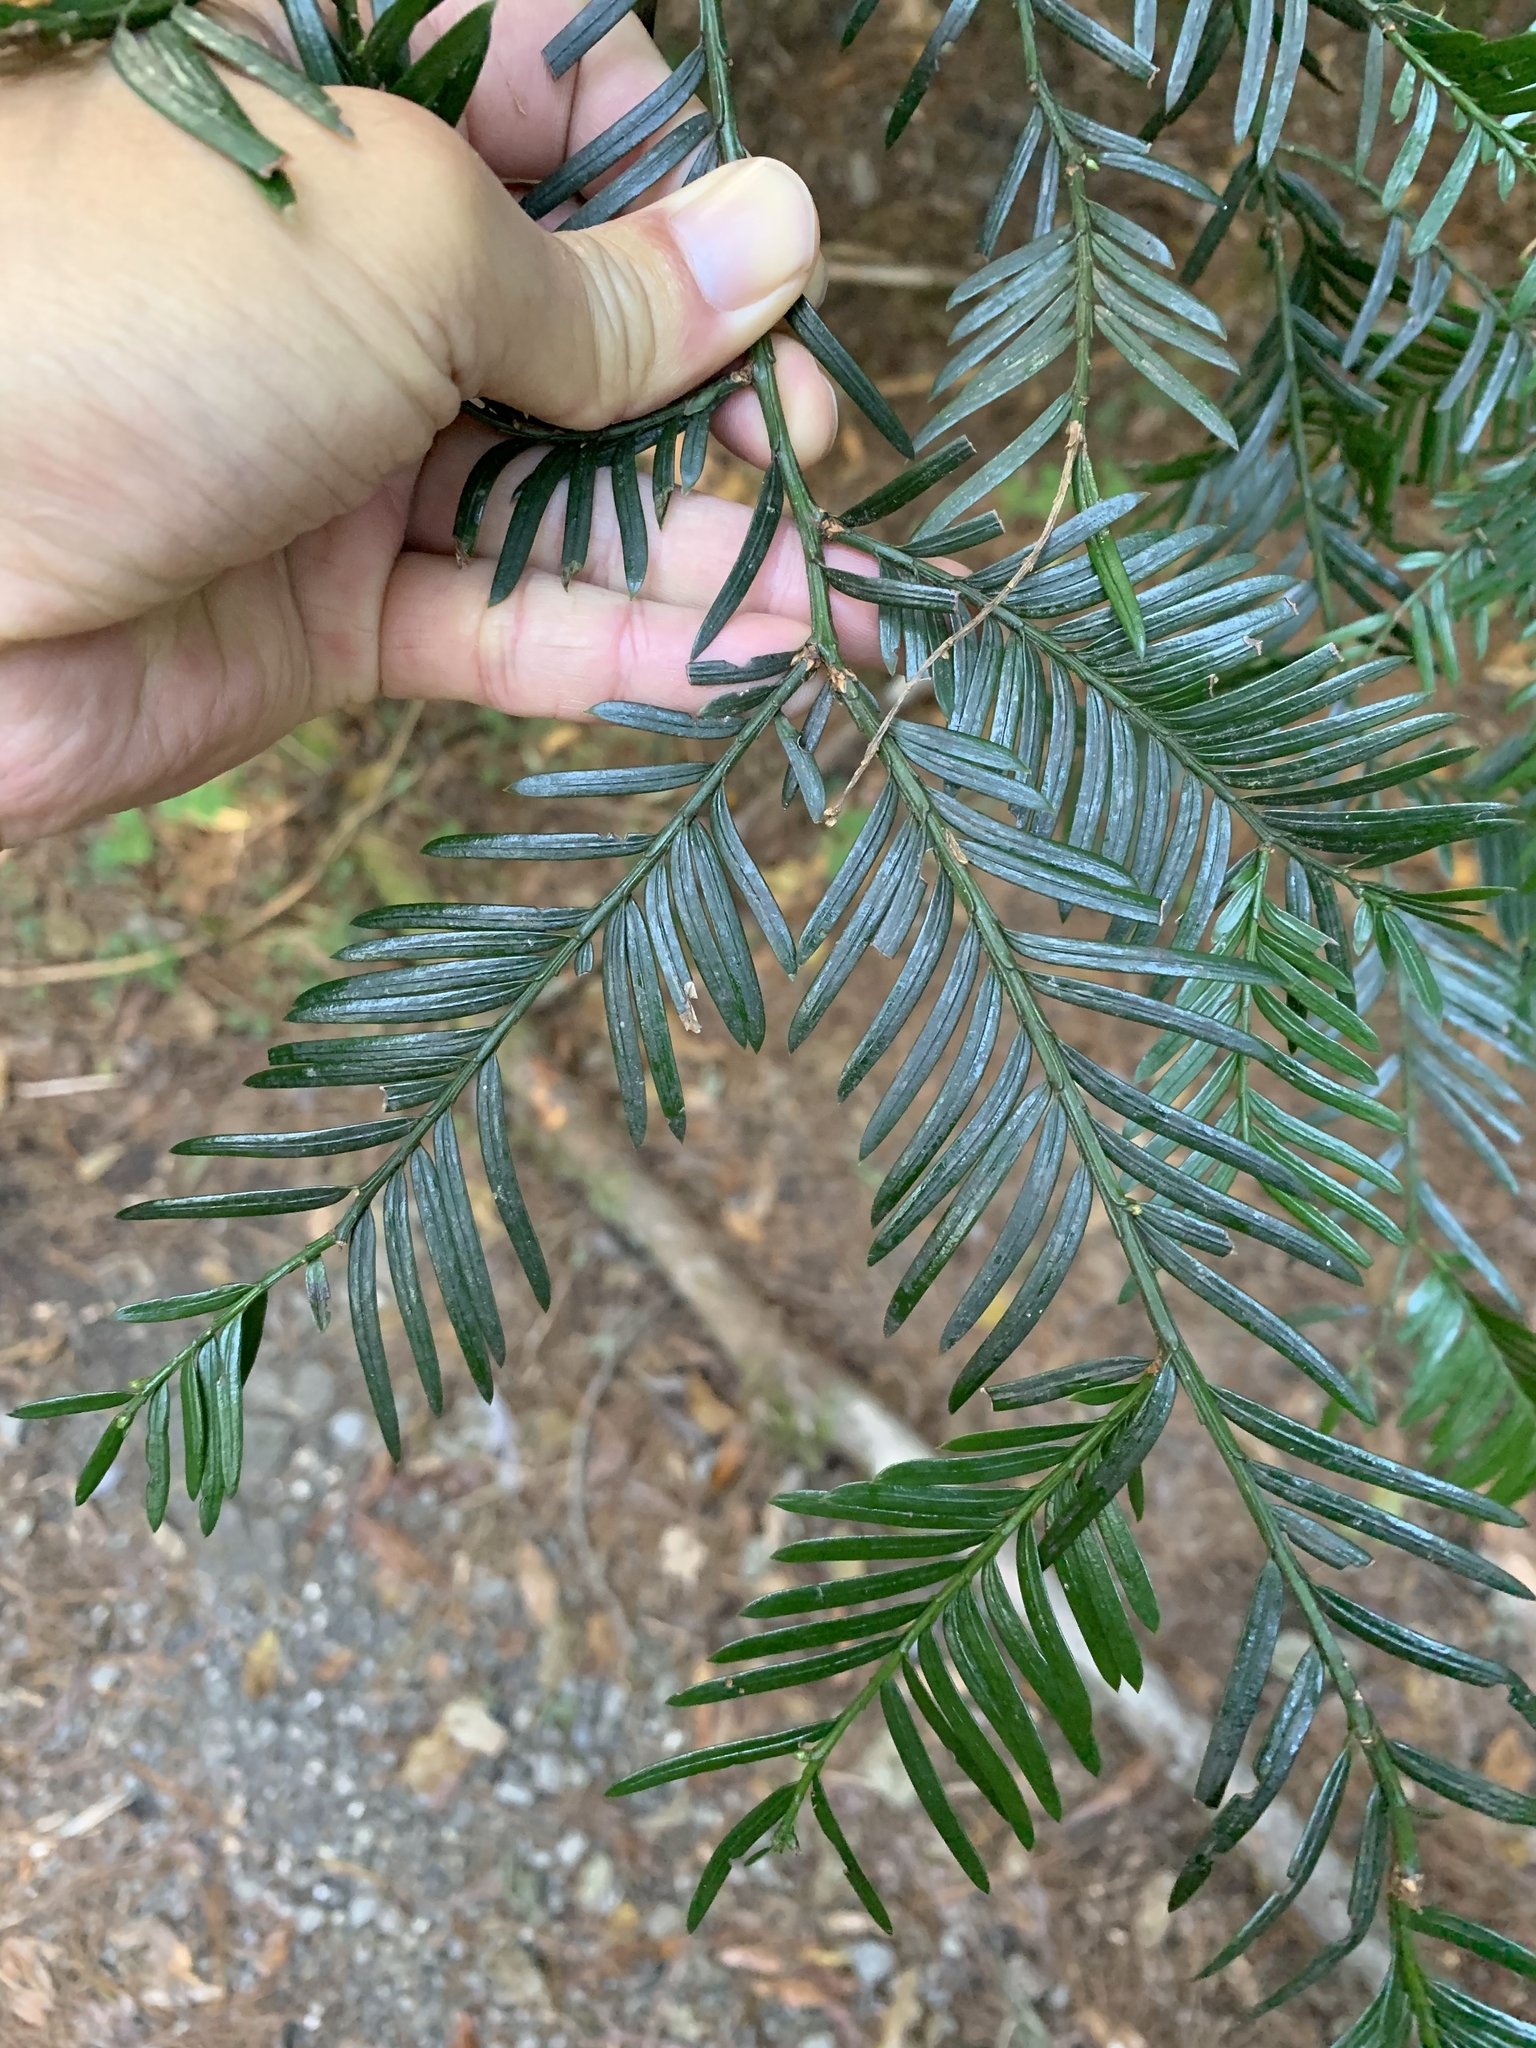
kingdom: Plantae
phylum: Tracheophyta
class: Pinopsida
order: Pinales
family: Taxaceae
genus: Taxus
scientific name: Taxus mairei
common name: Maire's yew
